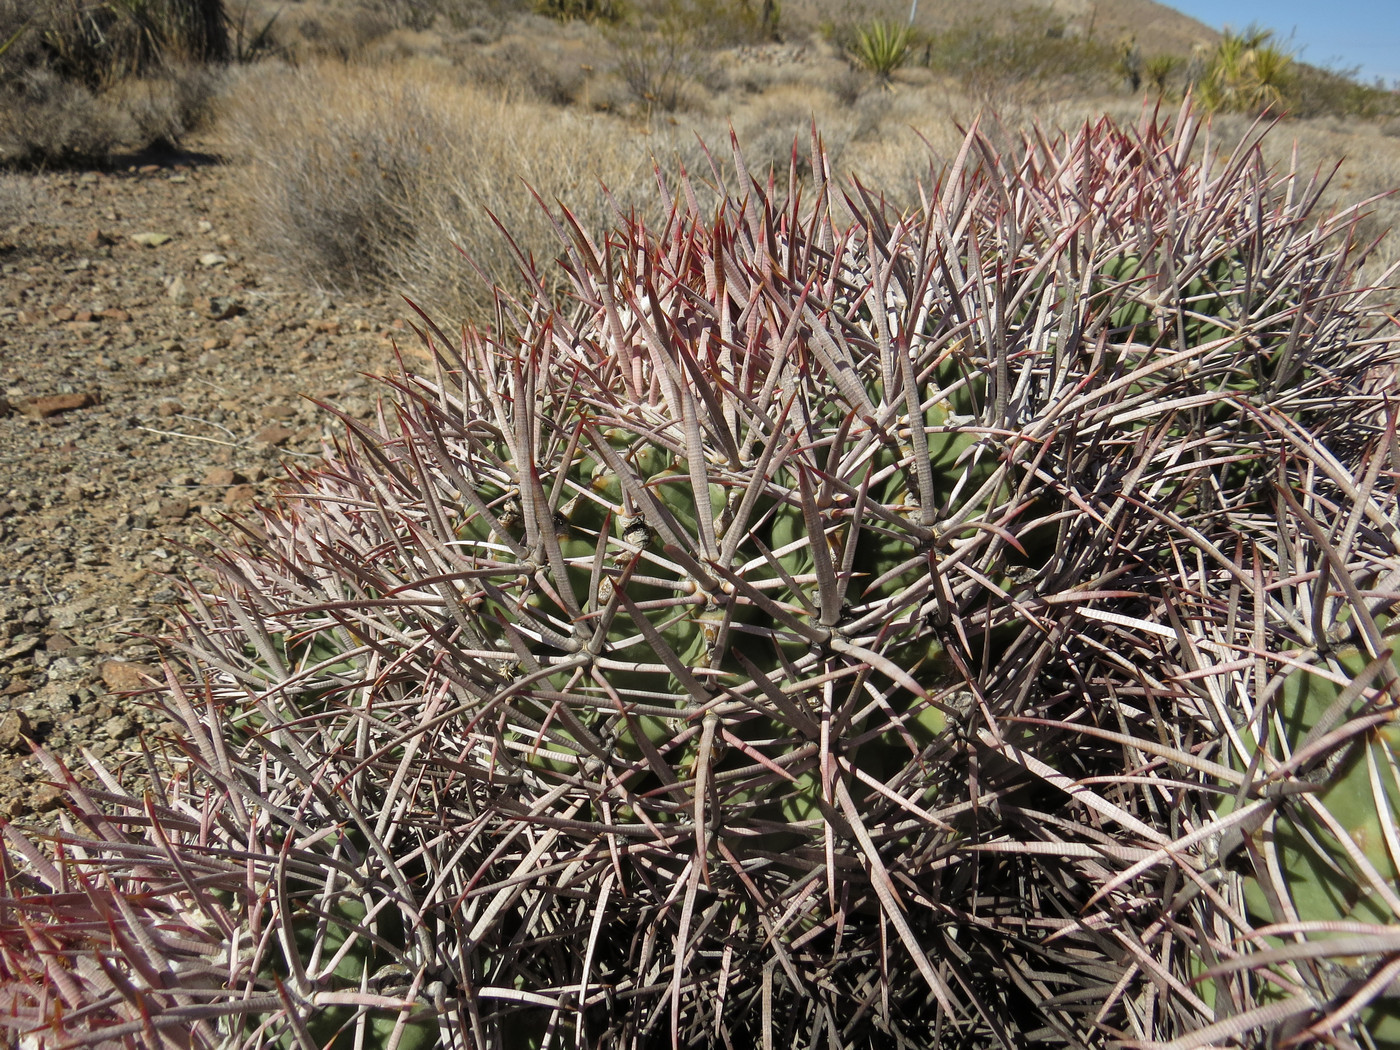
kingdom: Plantae
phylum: Tracheophyta
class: Magnoliopsida
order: Caryophyllales
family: Cactaceae
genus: Echinocactus
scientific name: Echinocactus polycephalus
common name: Cottontop cactus
